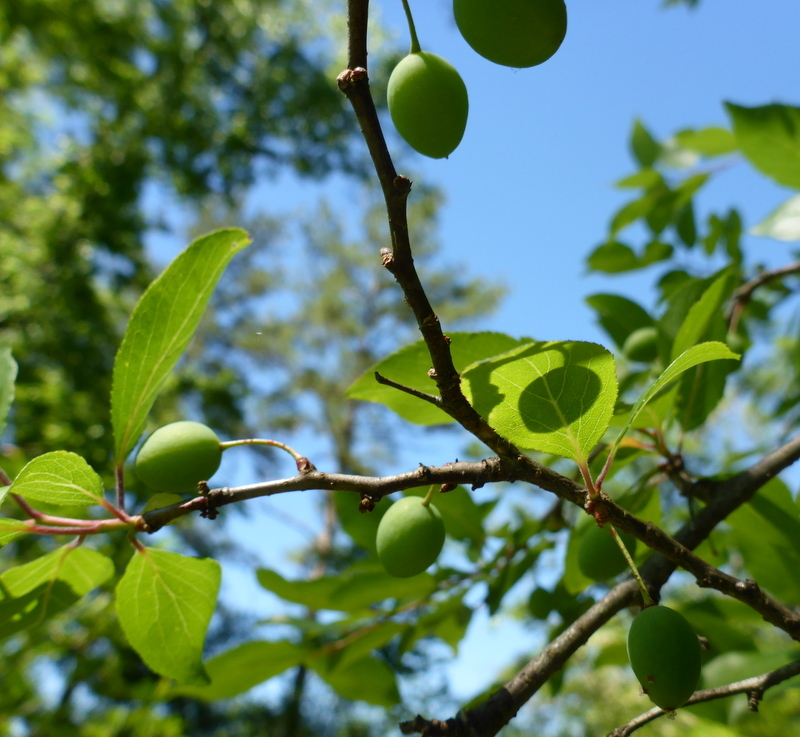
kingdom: Plantae
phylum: Tracheophyta
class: Magnoliopsida
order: Rosales
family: Rosaceae
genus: Prunus
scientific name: Prunus angustifolia
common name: Cherokee plum
